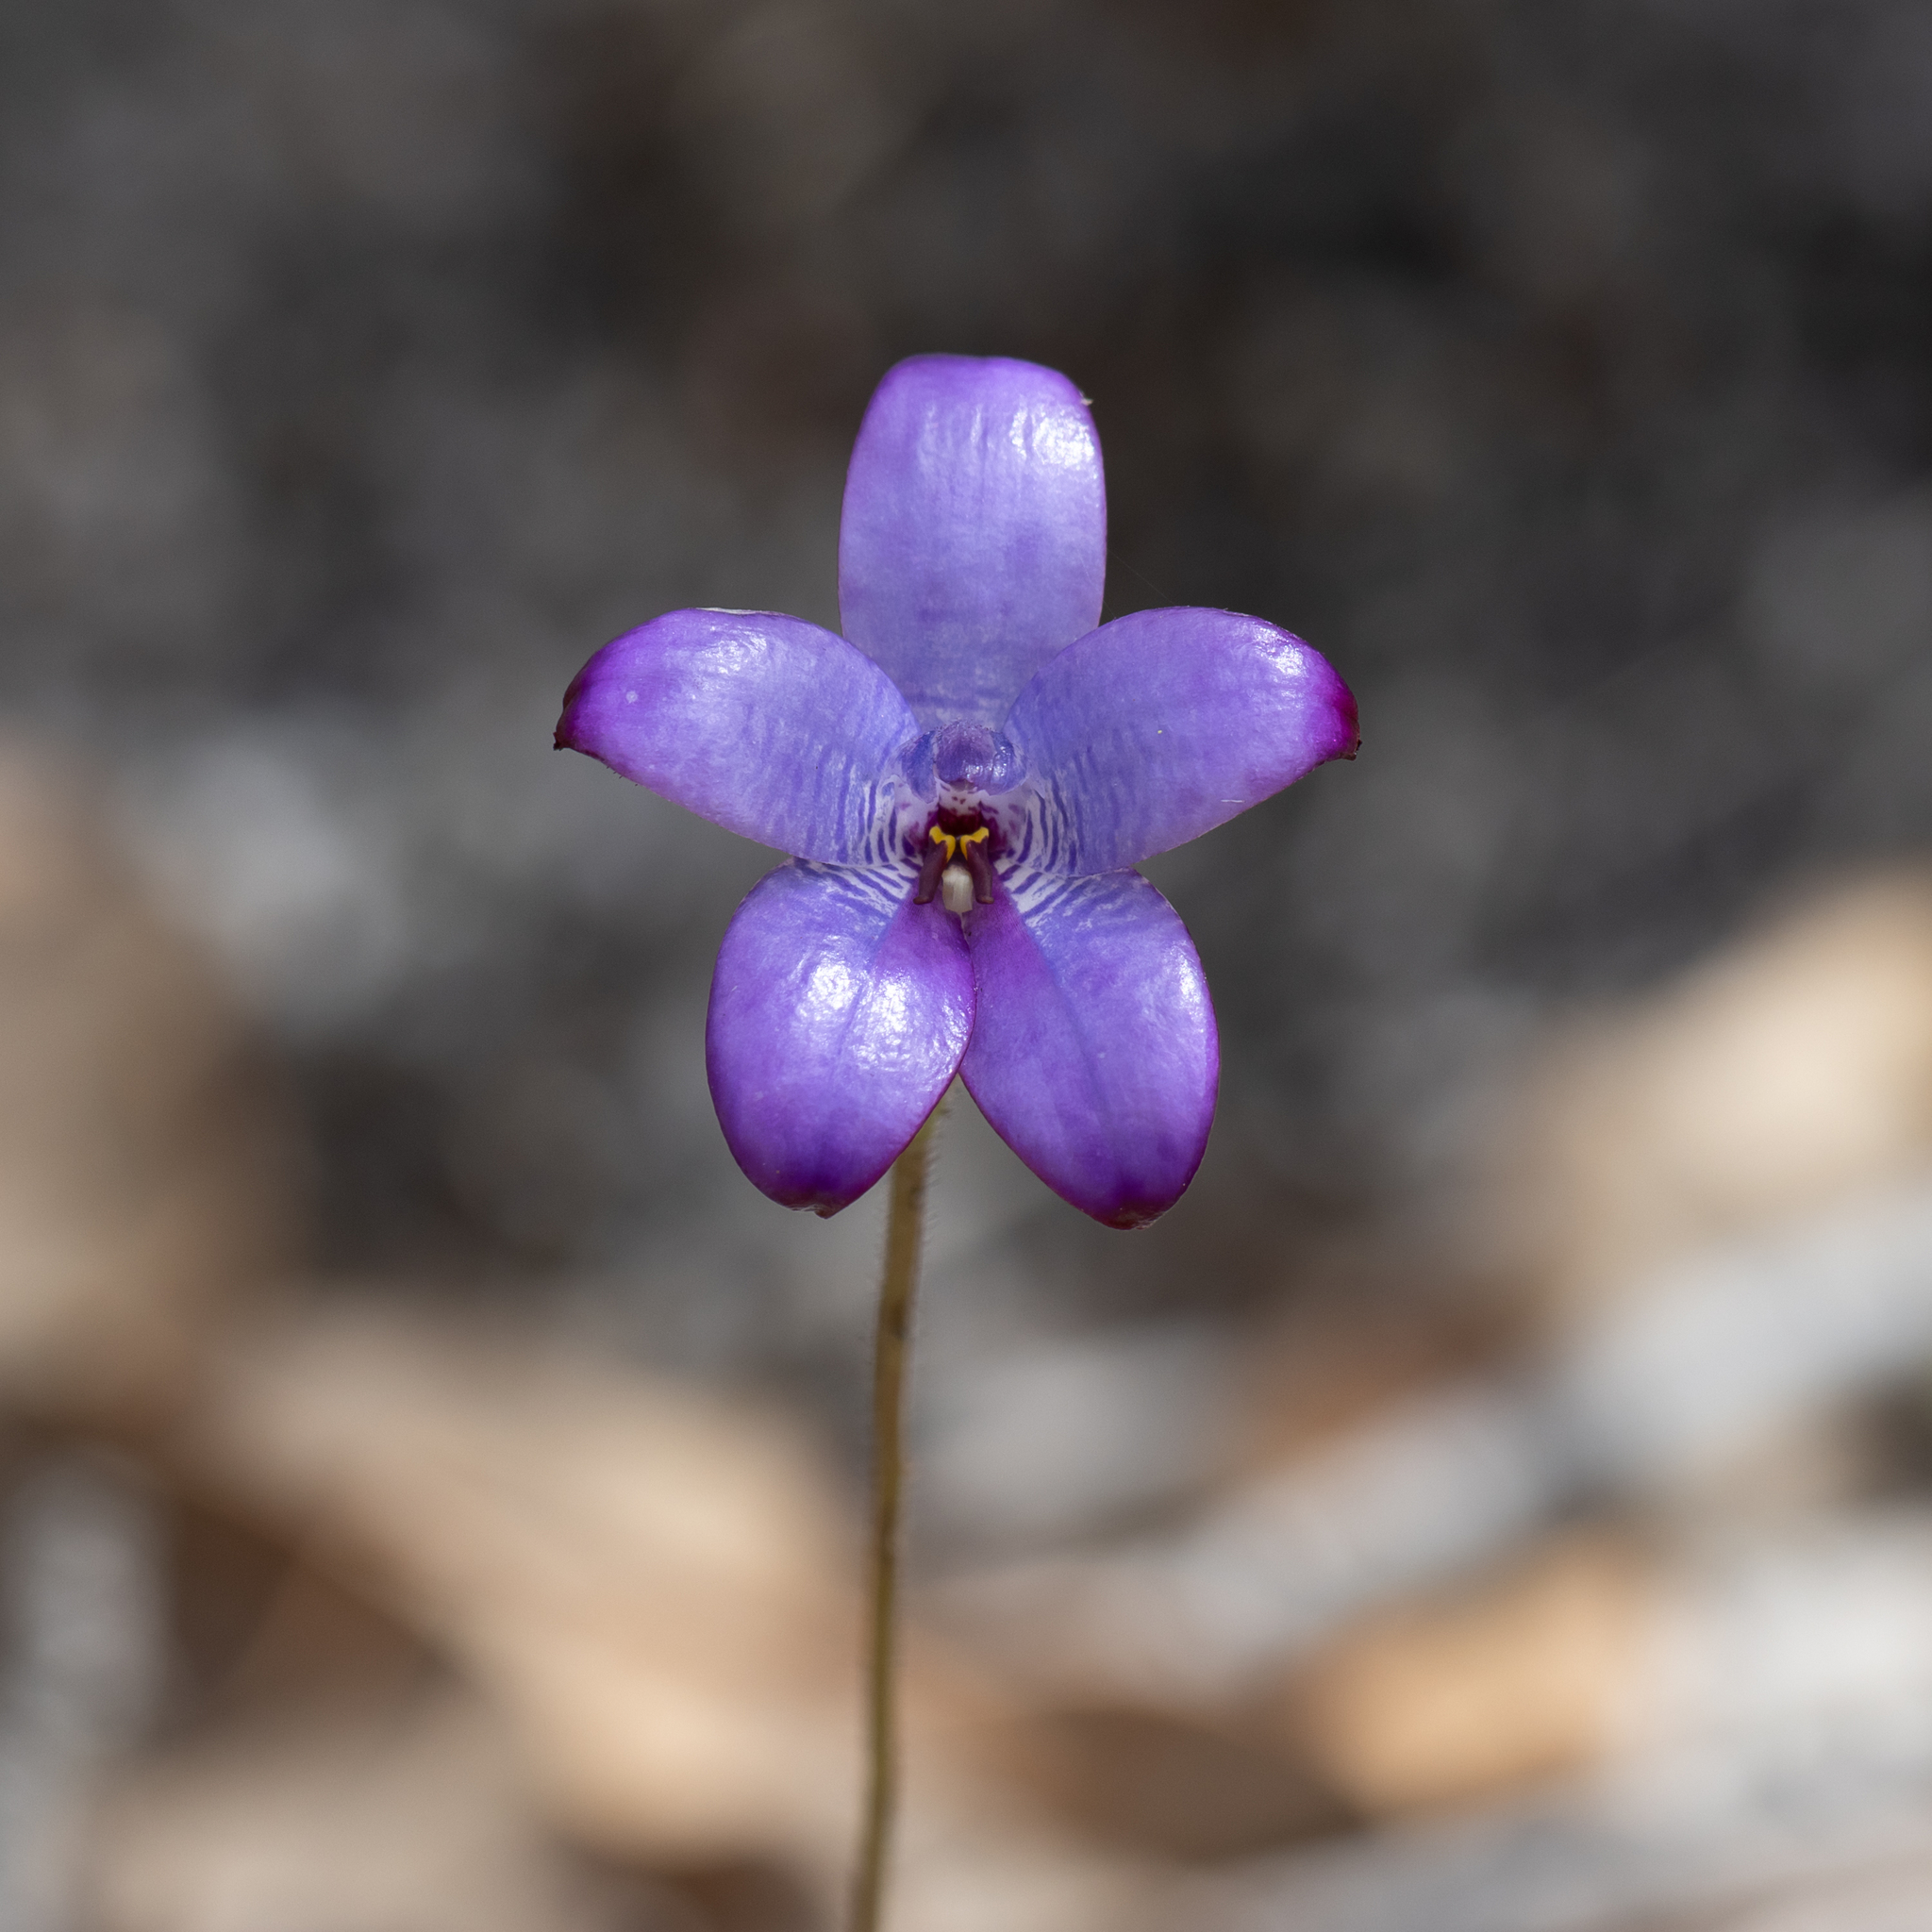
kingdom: Plantae
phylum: Tracheophyta
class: Liliopsida
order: Asparagales
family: Orchidaceae
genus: Caladenia
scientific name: Caladenia brunonis
